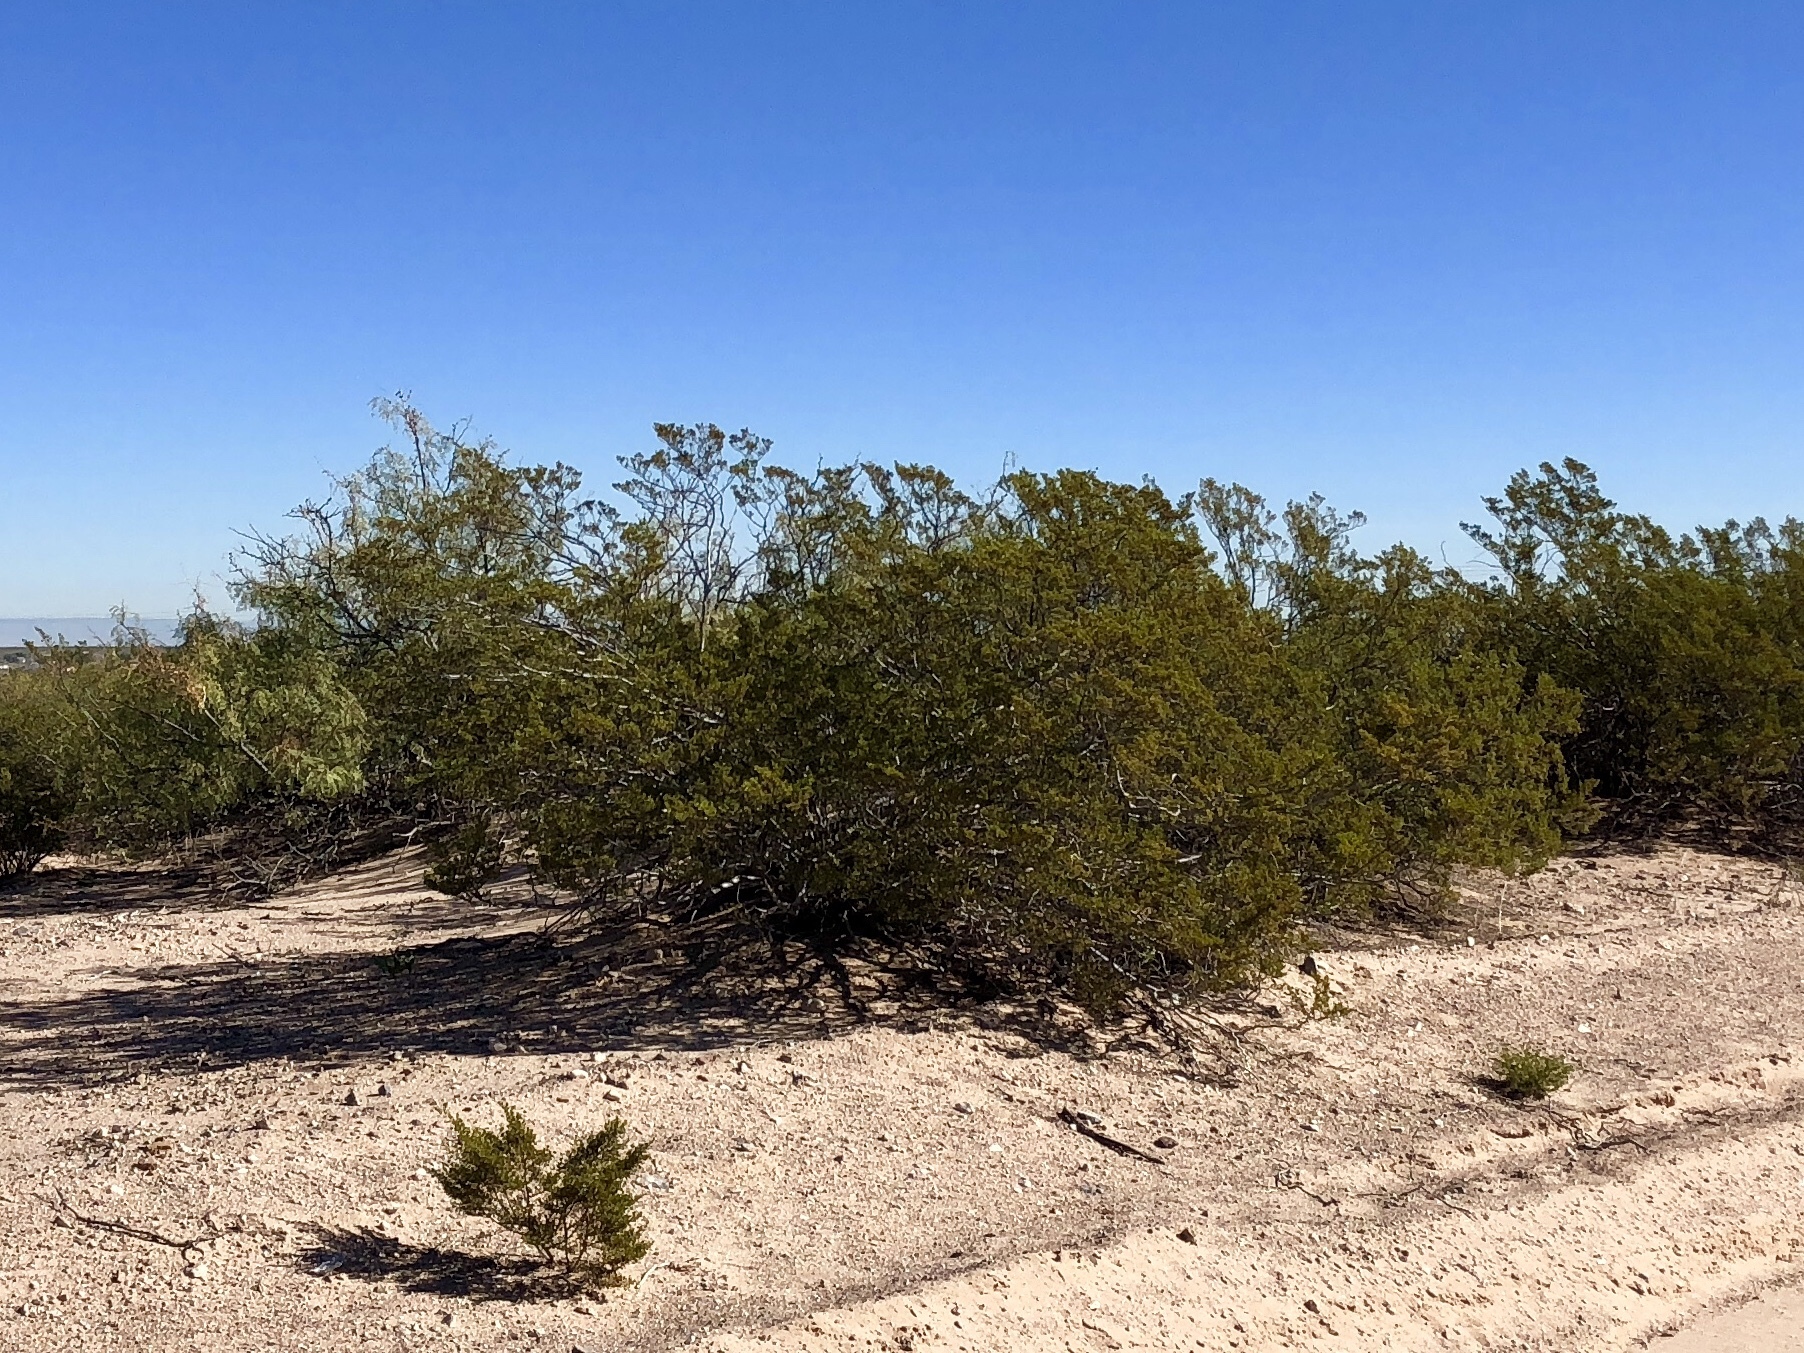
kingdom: Plantae
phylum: Tracheophyta
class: Magnoliopsida
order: Zygophyllales
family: Zygophyllaceae
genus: Larrea
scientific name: Larrea tridentata
